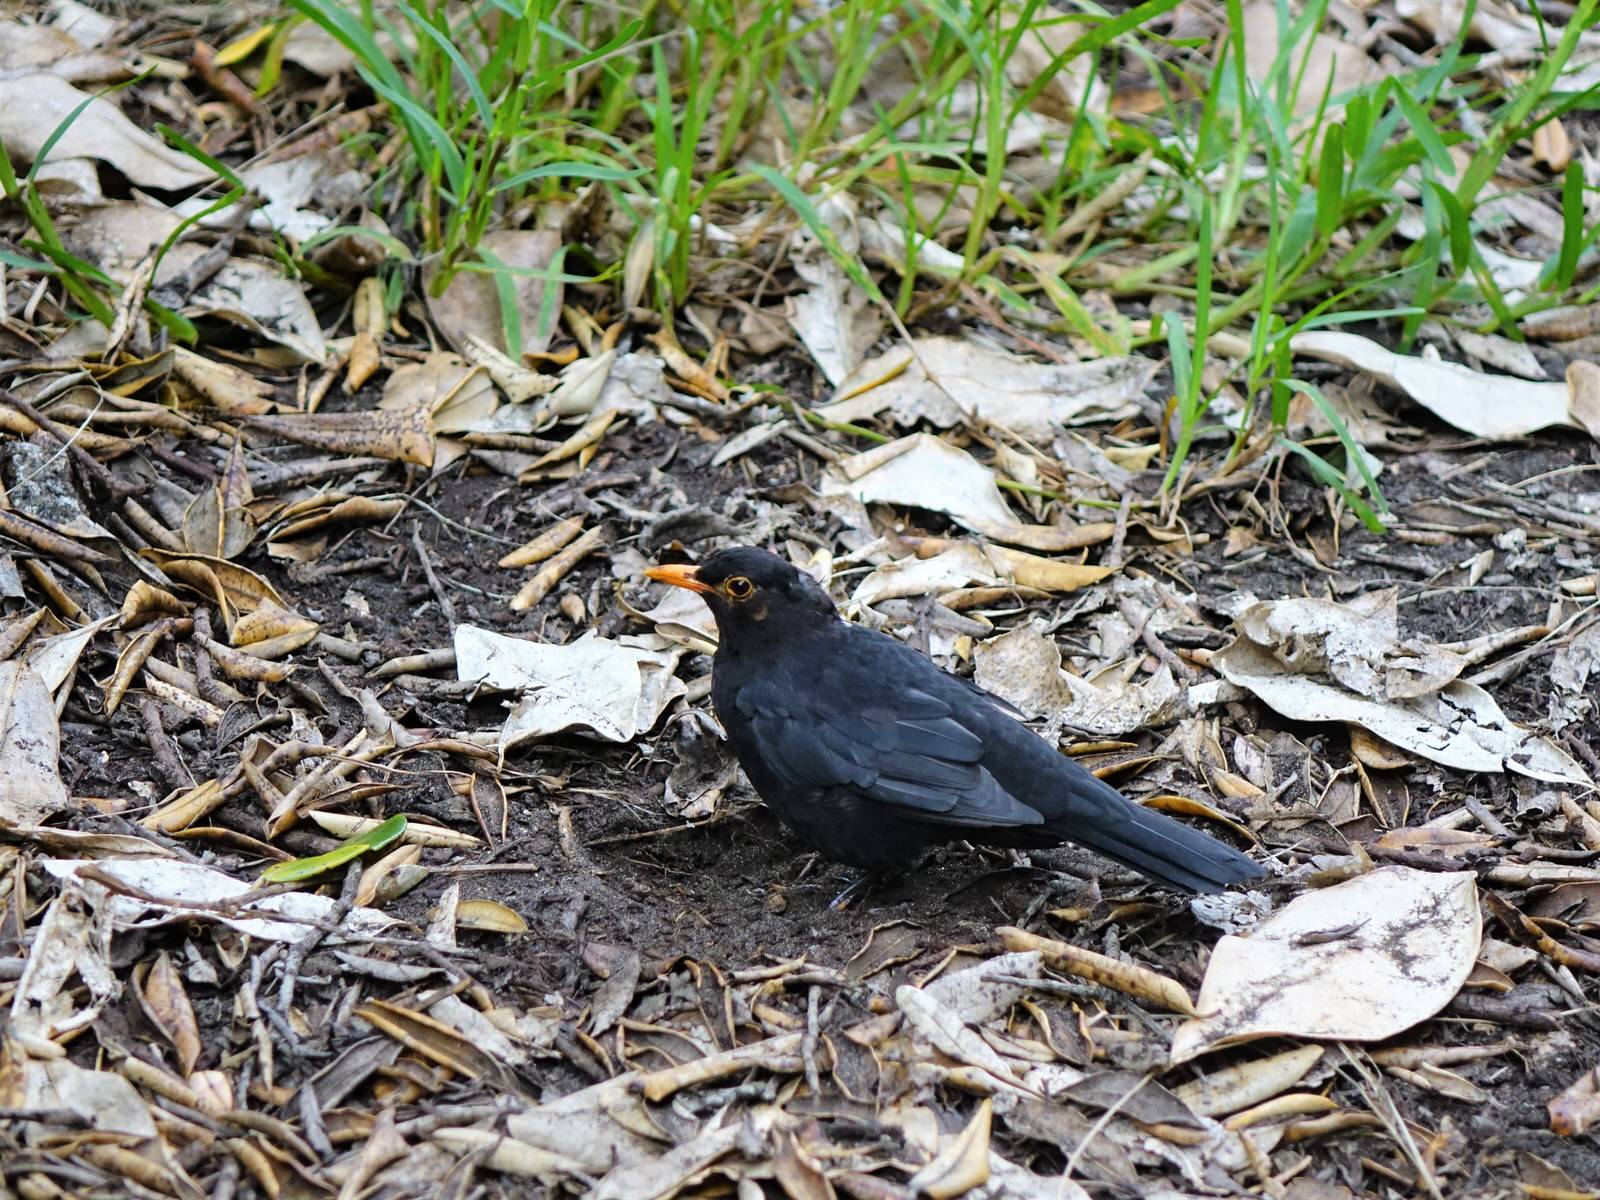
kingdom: Animalia
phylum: Chordata
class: Aves
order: Passeriformes
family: Turdidae
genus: Turdus
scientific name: Turdus merula
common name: Common blackbird
